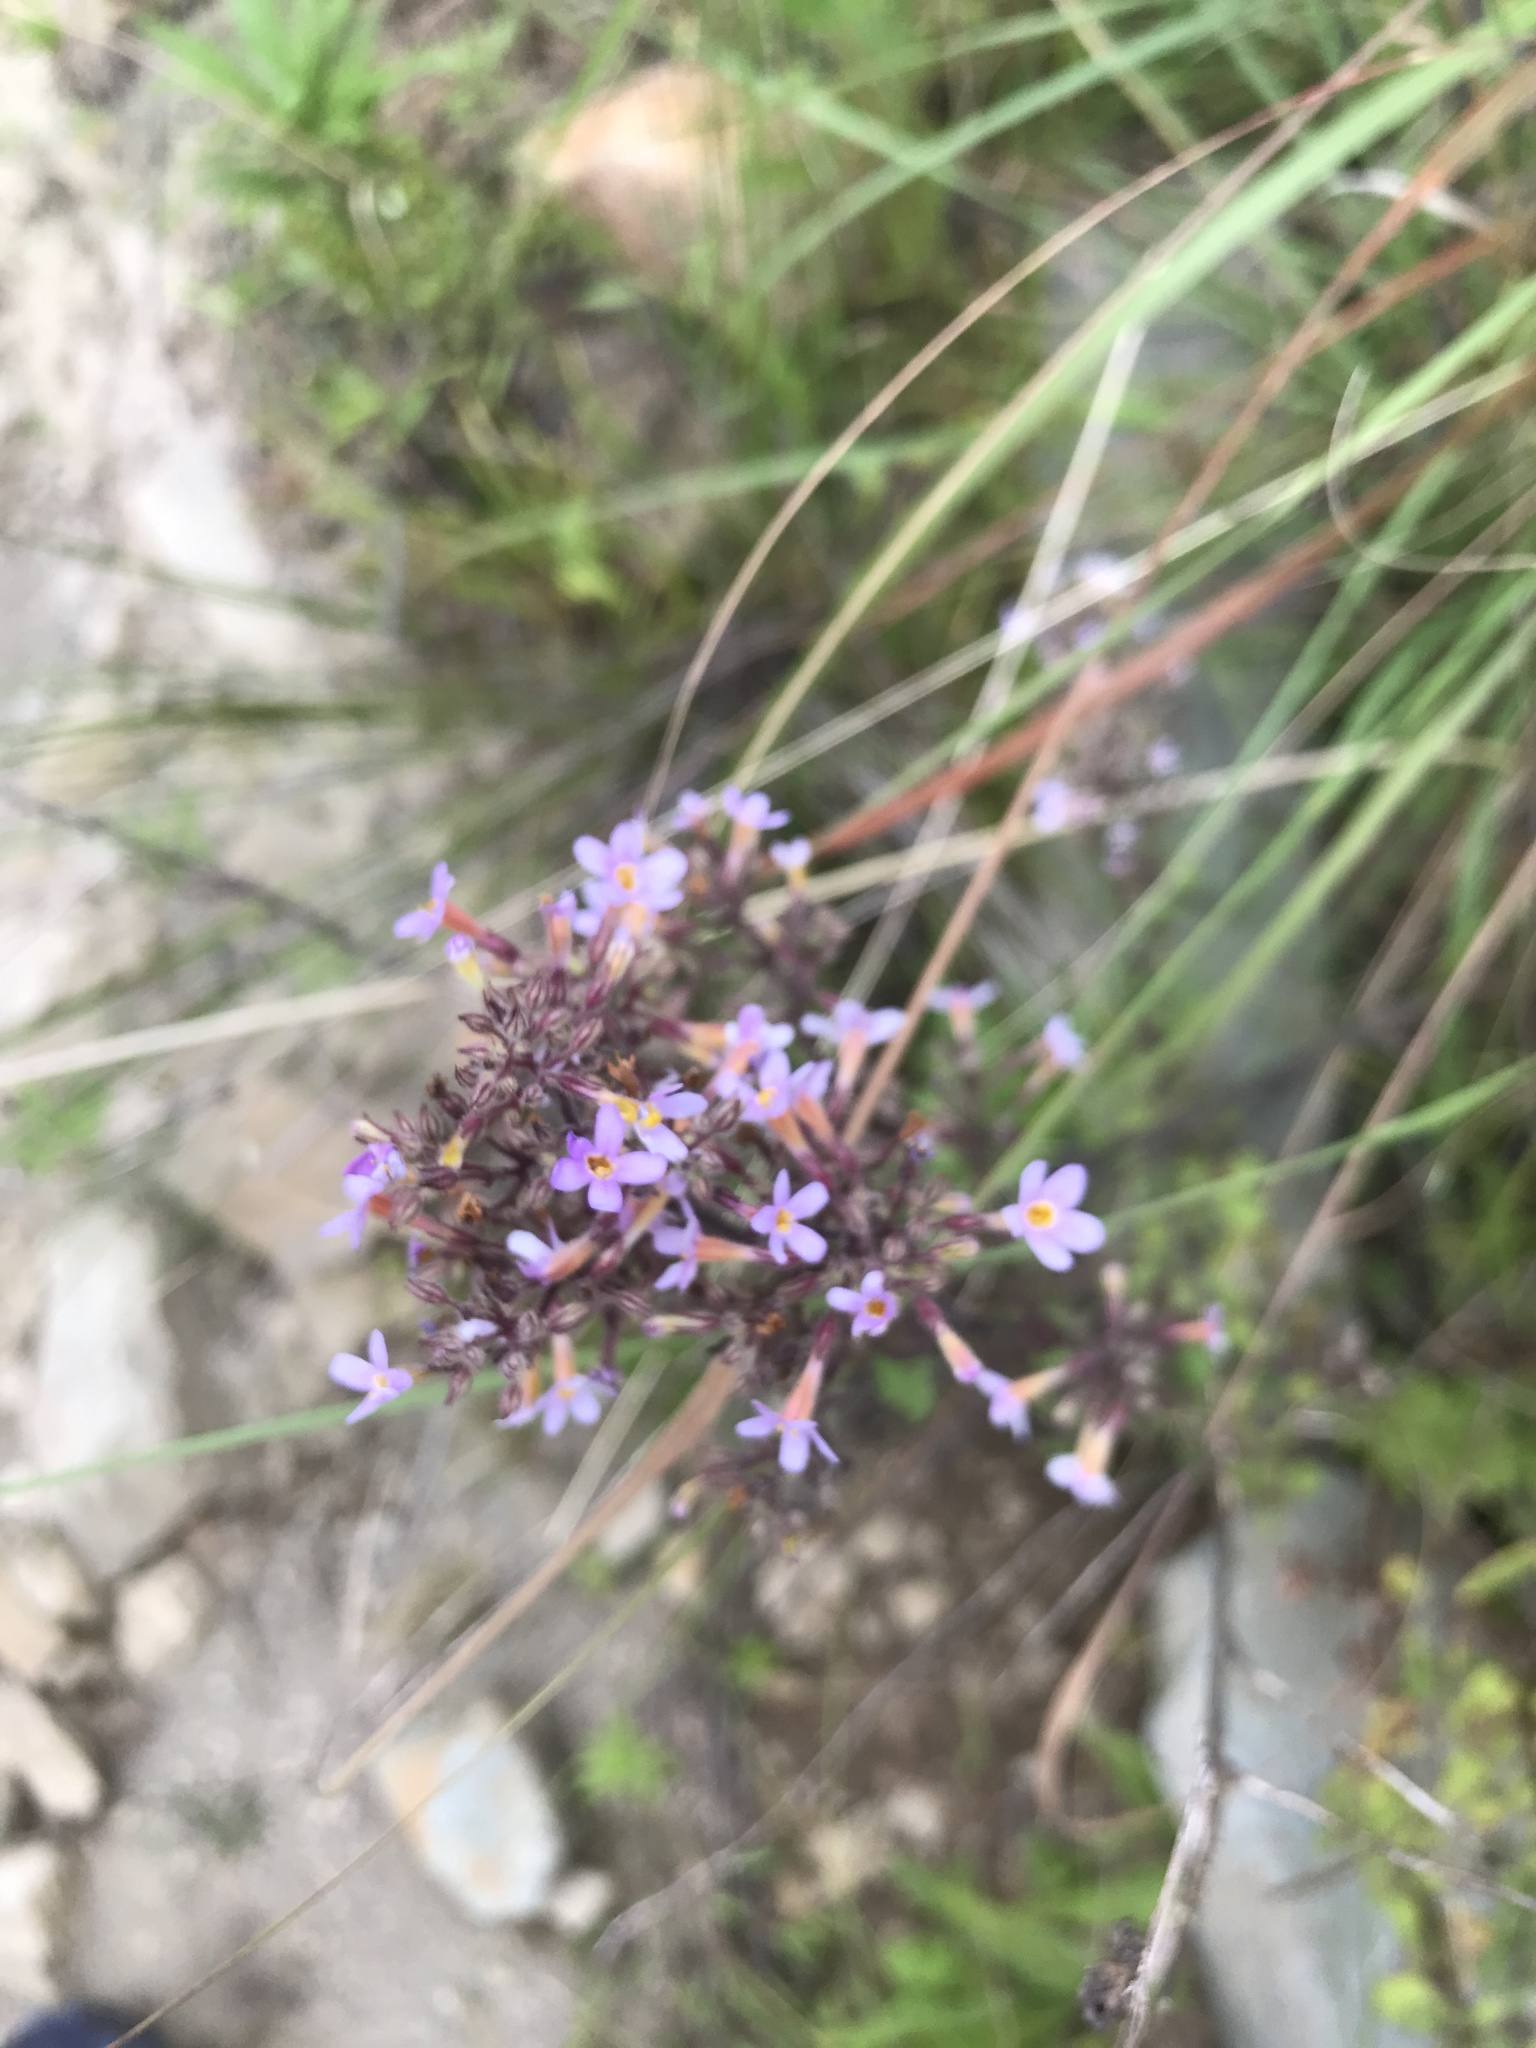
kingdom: Plantae
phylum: Tracheophyta
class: Magnoliopsida
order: Lamiales
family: Scrophulariaceae
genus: Chaenostoma
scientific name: Chaenostoma floribundum
